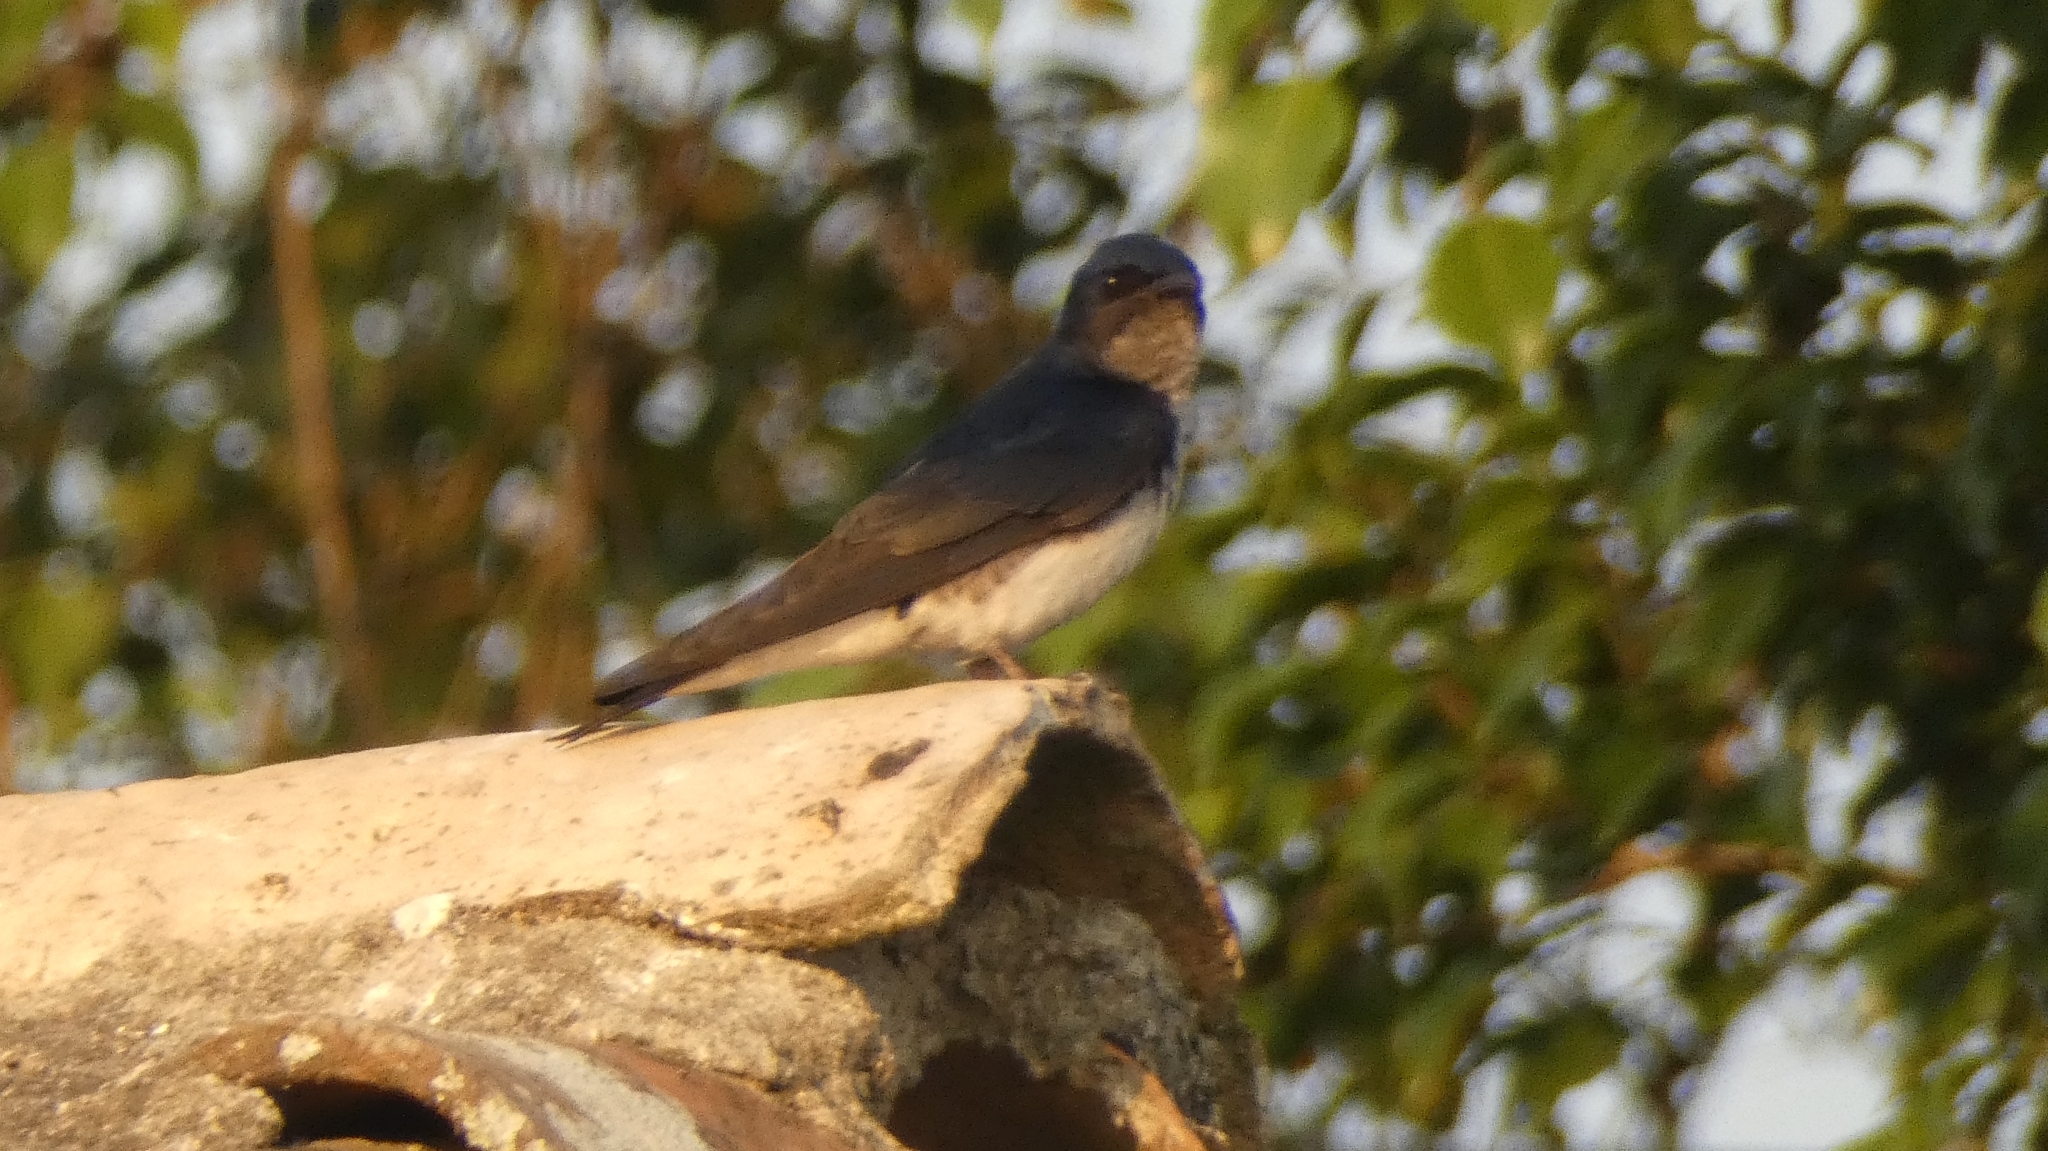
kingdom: Animalia
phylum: Chordata
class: Aves
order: Passeriformes
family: Hirundinidae
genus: Progne
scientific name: Progne chalybea
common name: Grey-breasted martin
